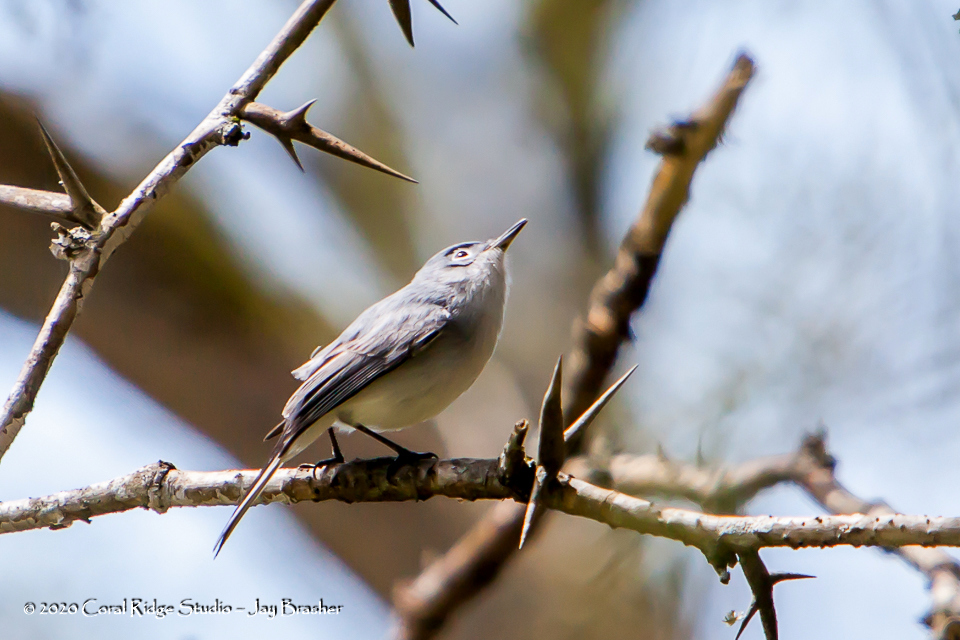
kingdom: Animalia
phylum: Chordata
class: Aves
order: Passeriformes
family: Polioptilidae
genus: Polioptila
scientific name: Polioptila caerulea
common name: Blue-gray gnatcatcher
